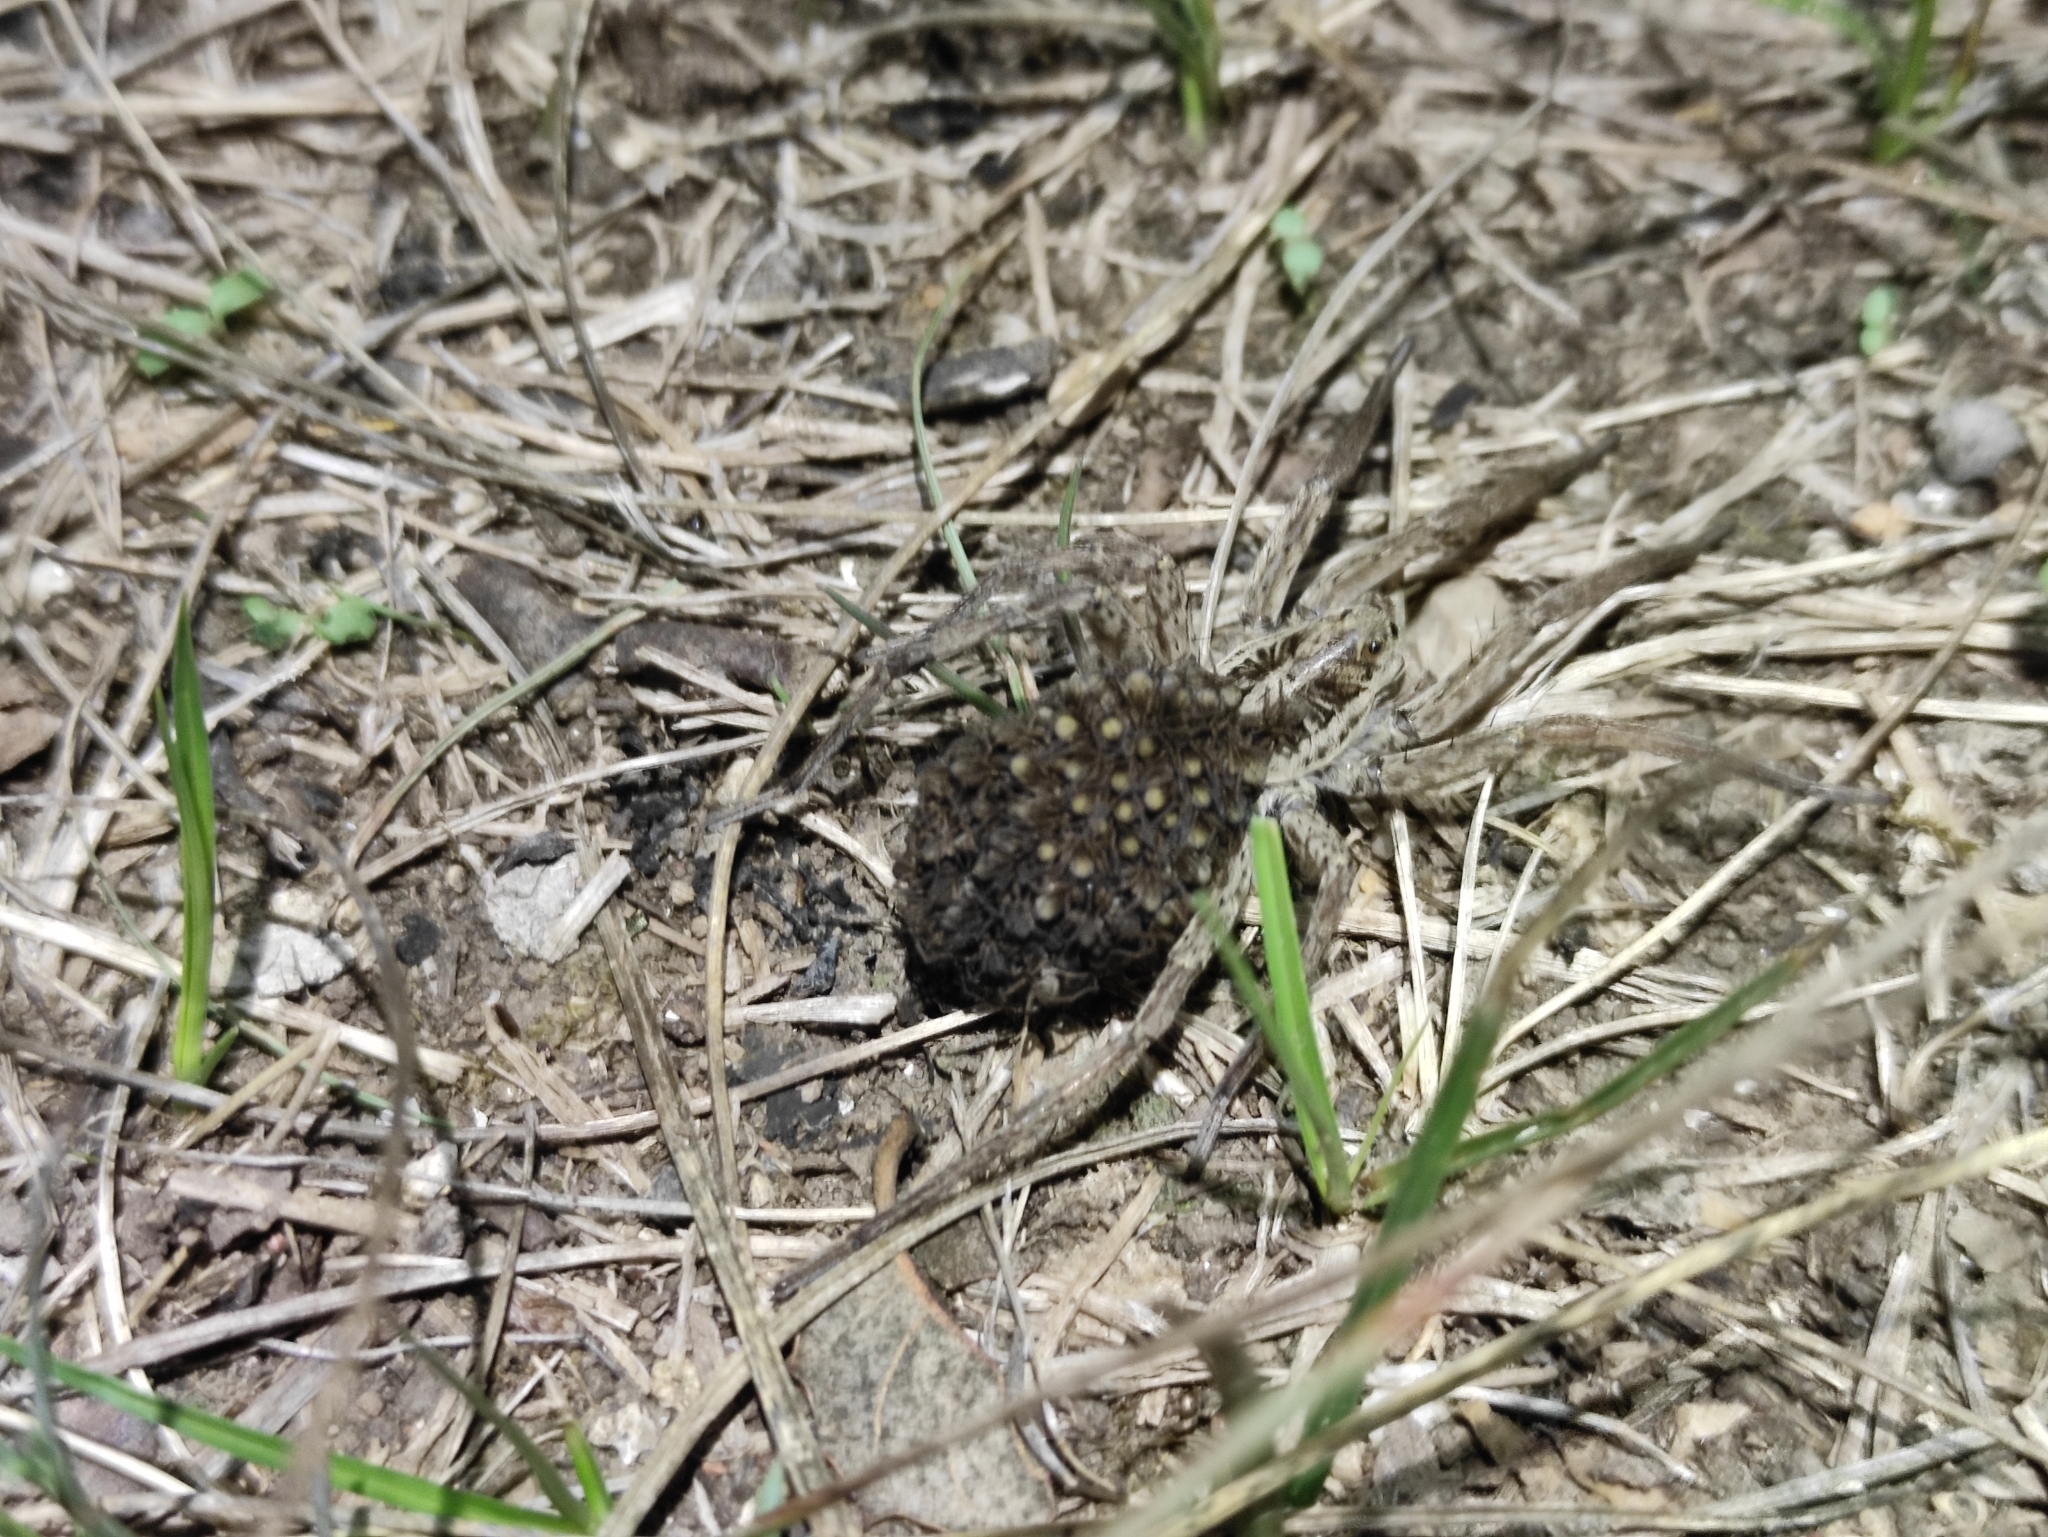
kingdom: Animalia
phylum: Arthropoda
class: Arachnida
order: Araneae
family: Lycosidae
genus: Hogna
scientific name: Hogna radiata
